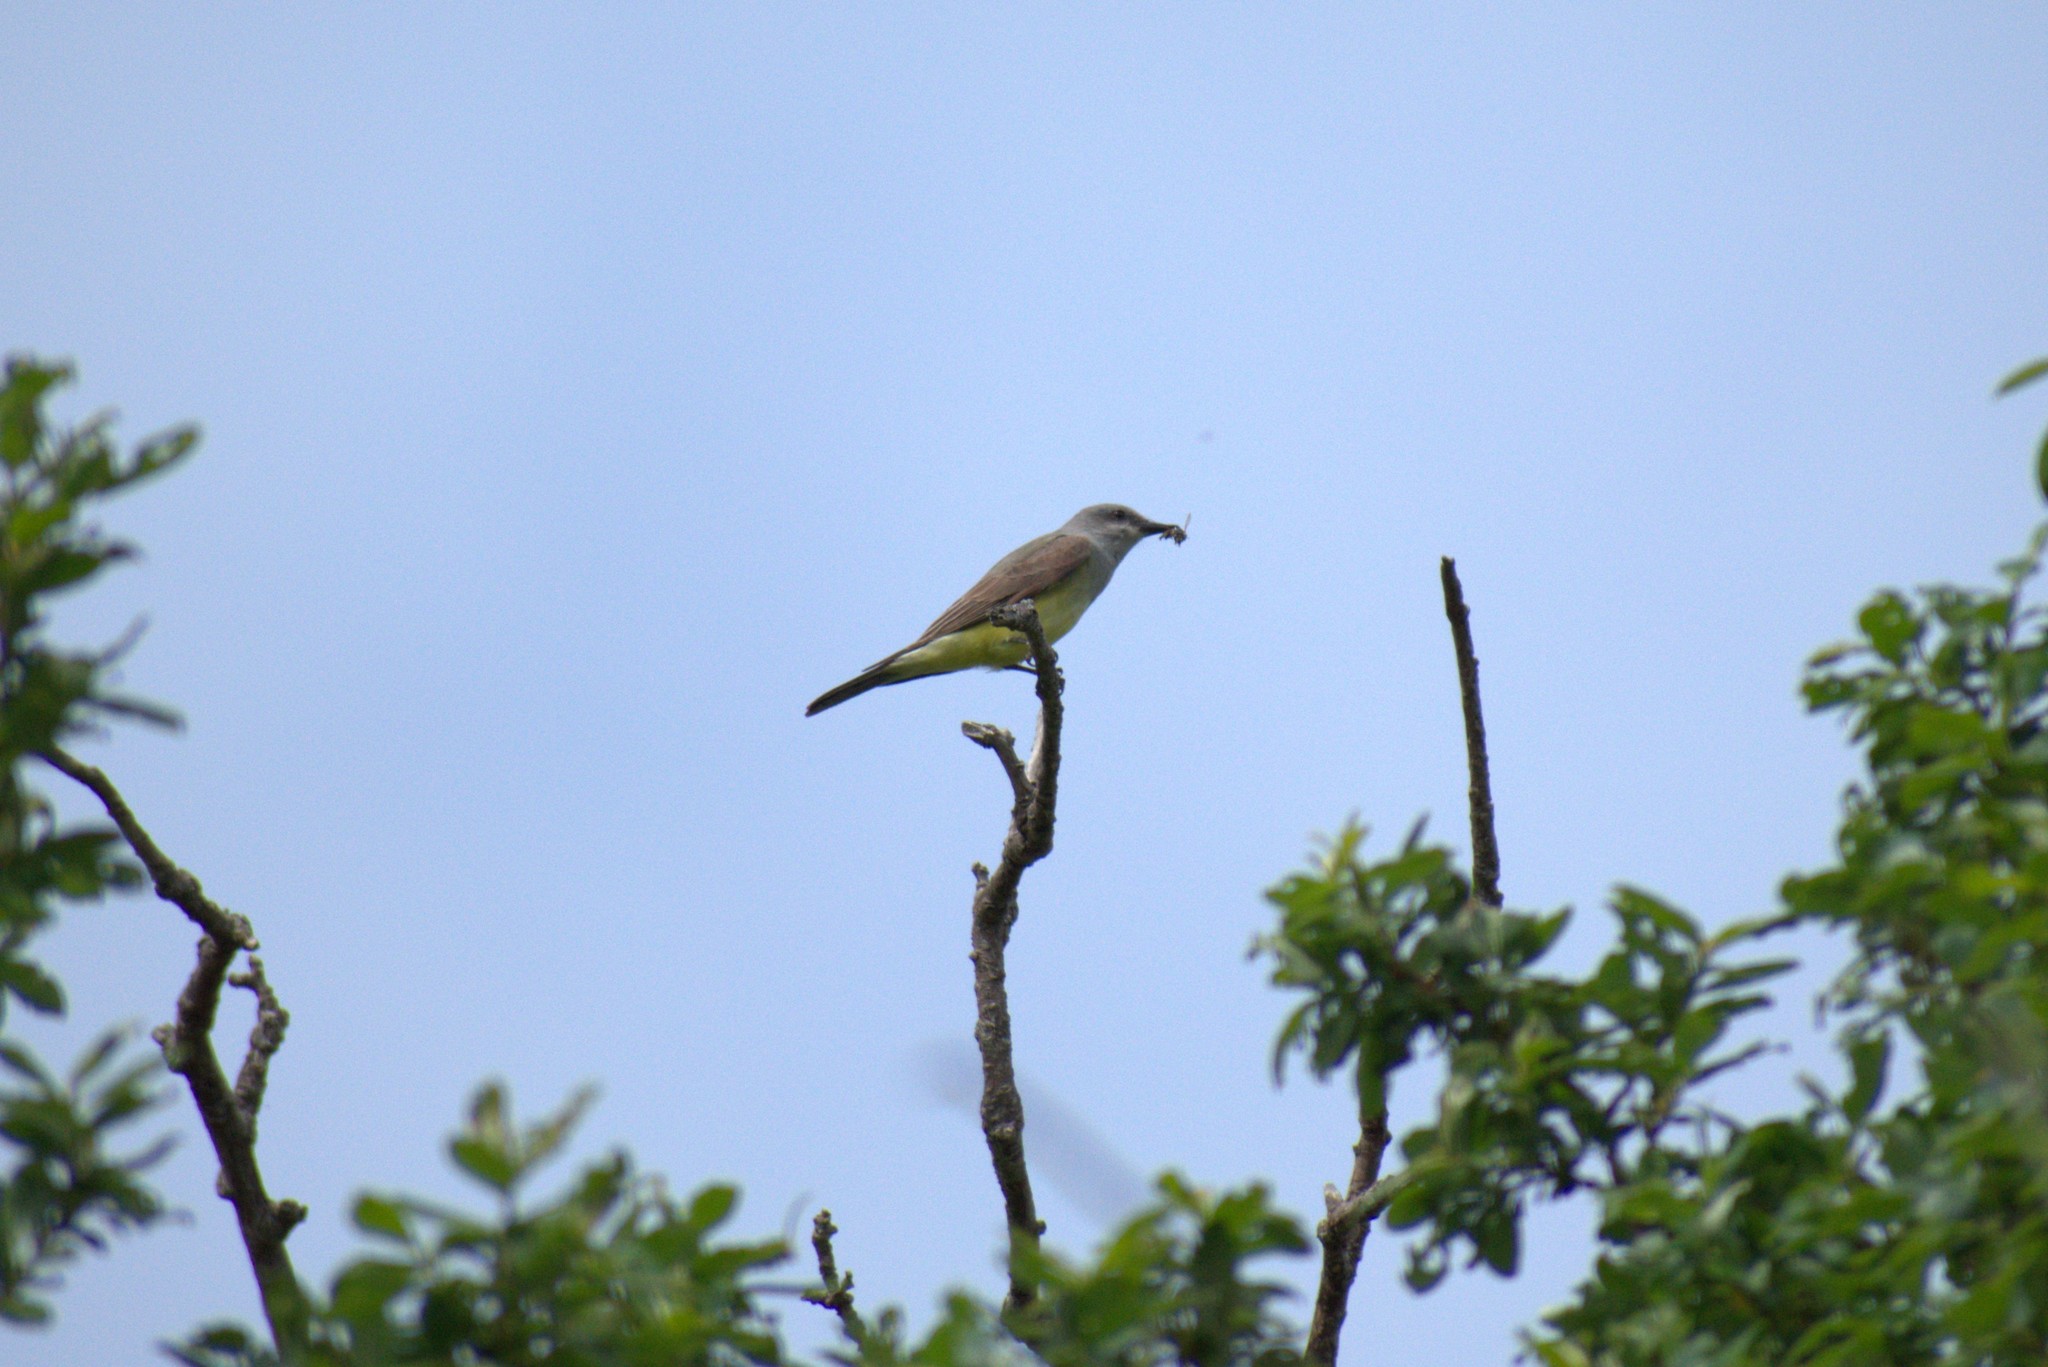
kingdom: Animalia
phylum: Chordata
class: Aves
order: Passeriformes
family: Tyrannidae
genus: Tyrannus
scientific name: Tyrannus verticalis
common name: Western kingbird
